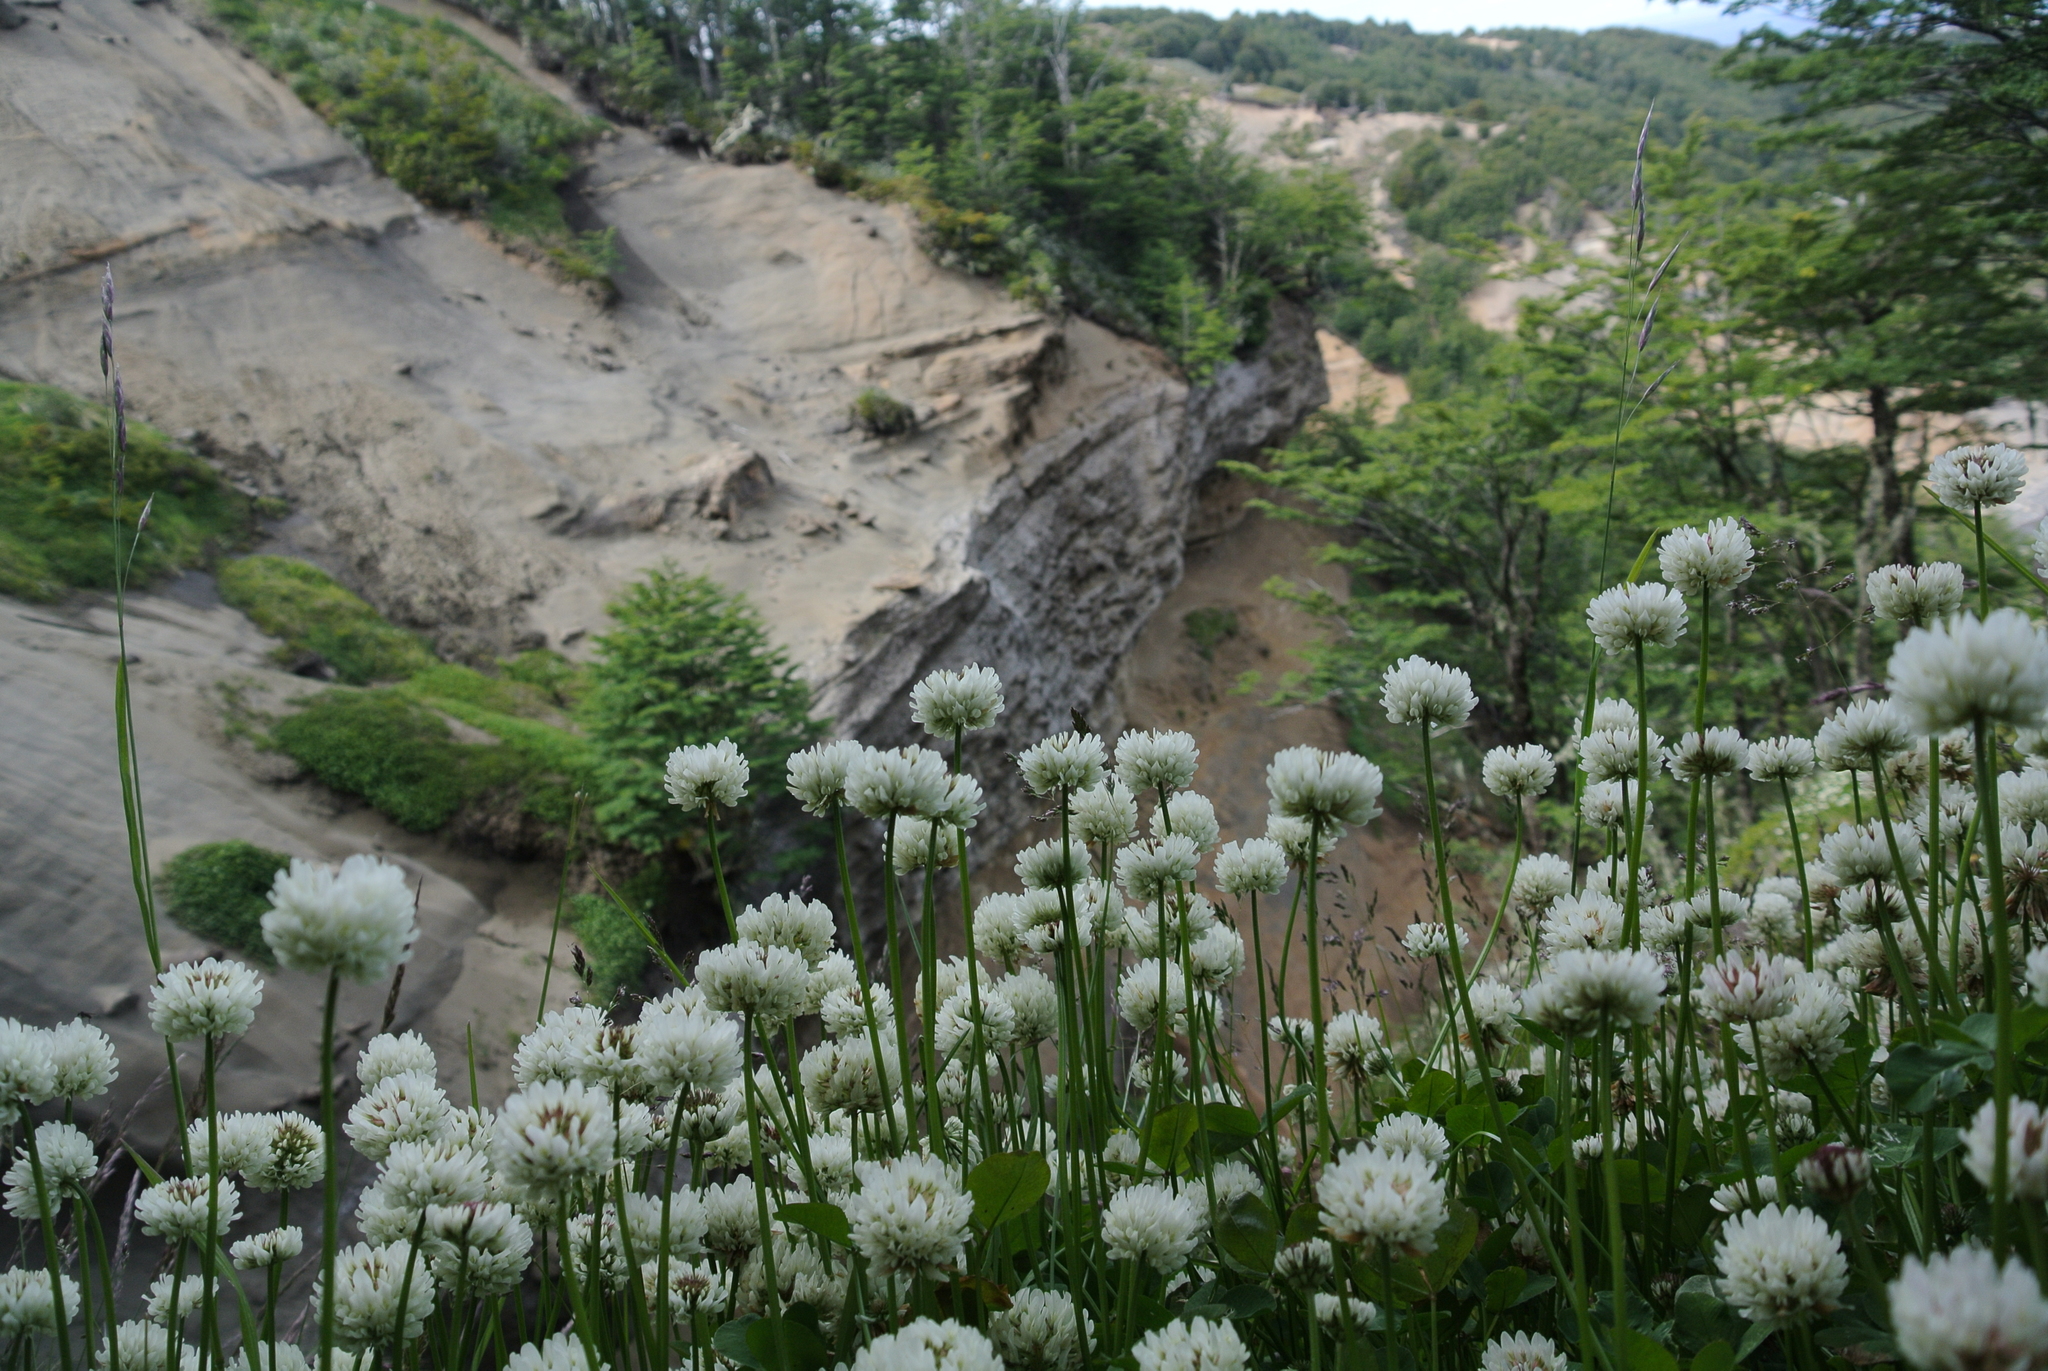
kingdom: Plantae
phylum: Tracheophyta
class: Magnoliopsida
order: Fabales
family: Fabaceae
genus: Trifolium
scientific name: Trifolium repens
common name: White clover
